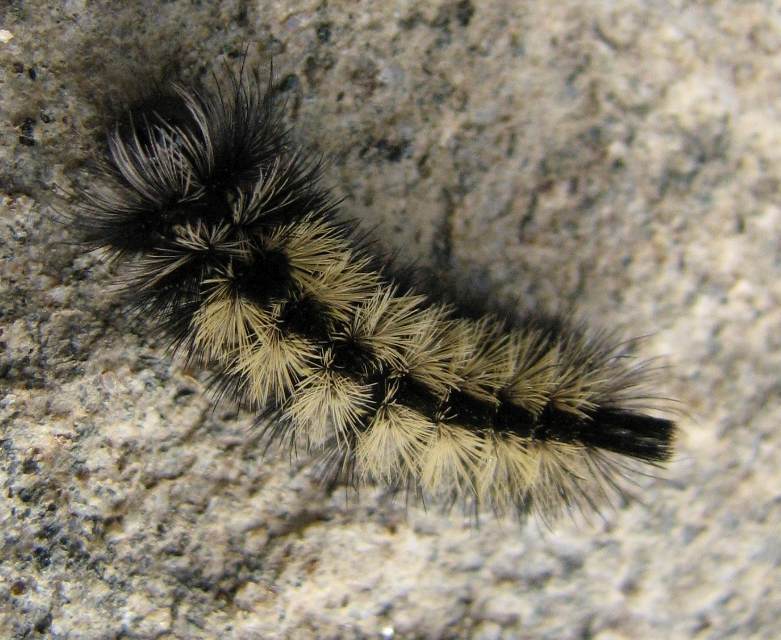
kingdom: Animalia
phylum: Arthropoda
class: Insecta
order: Lepidoptera
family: Erebidae
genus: Ctenucha
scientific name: Ctenucha virginica
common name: Virginia ctenucha moth
